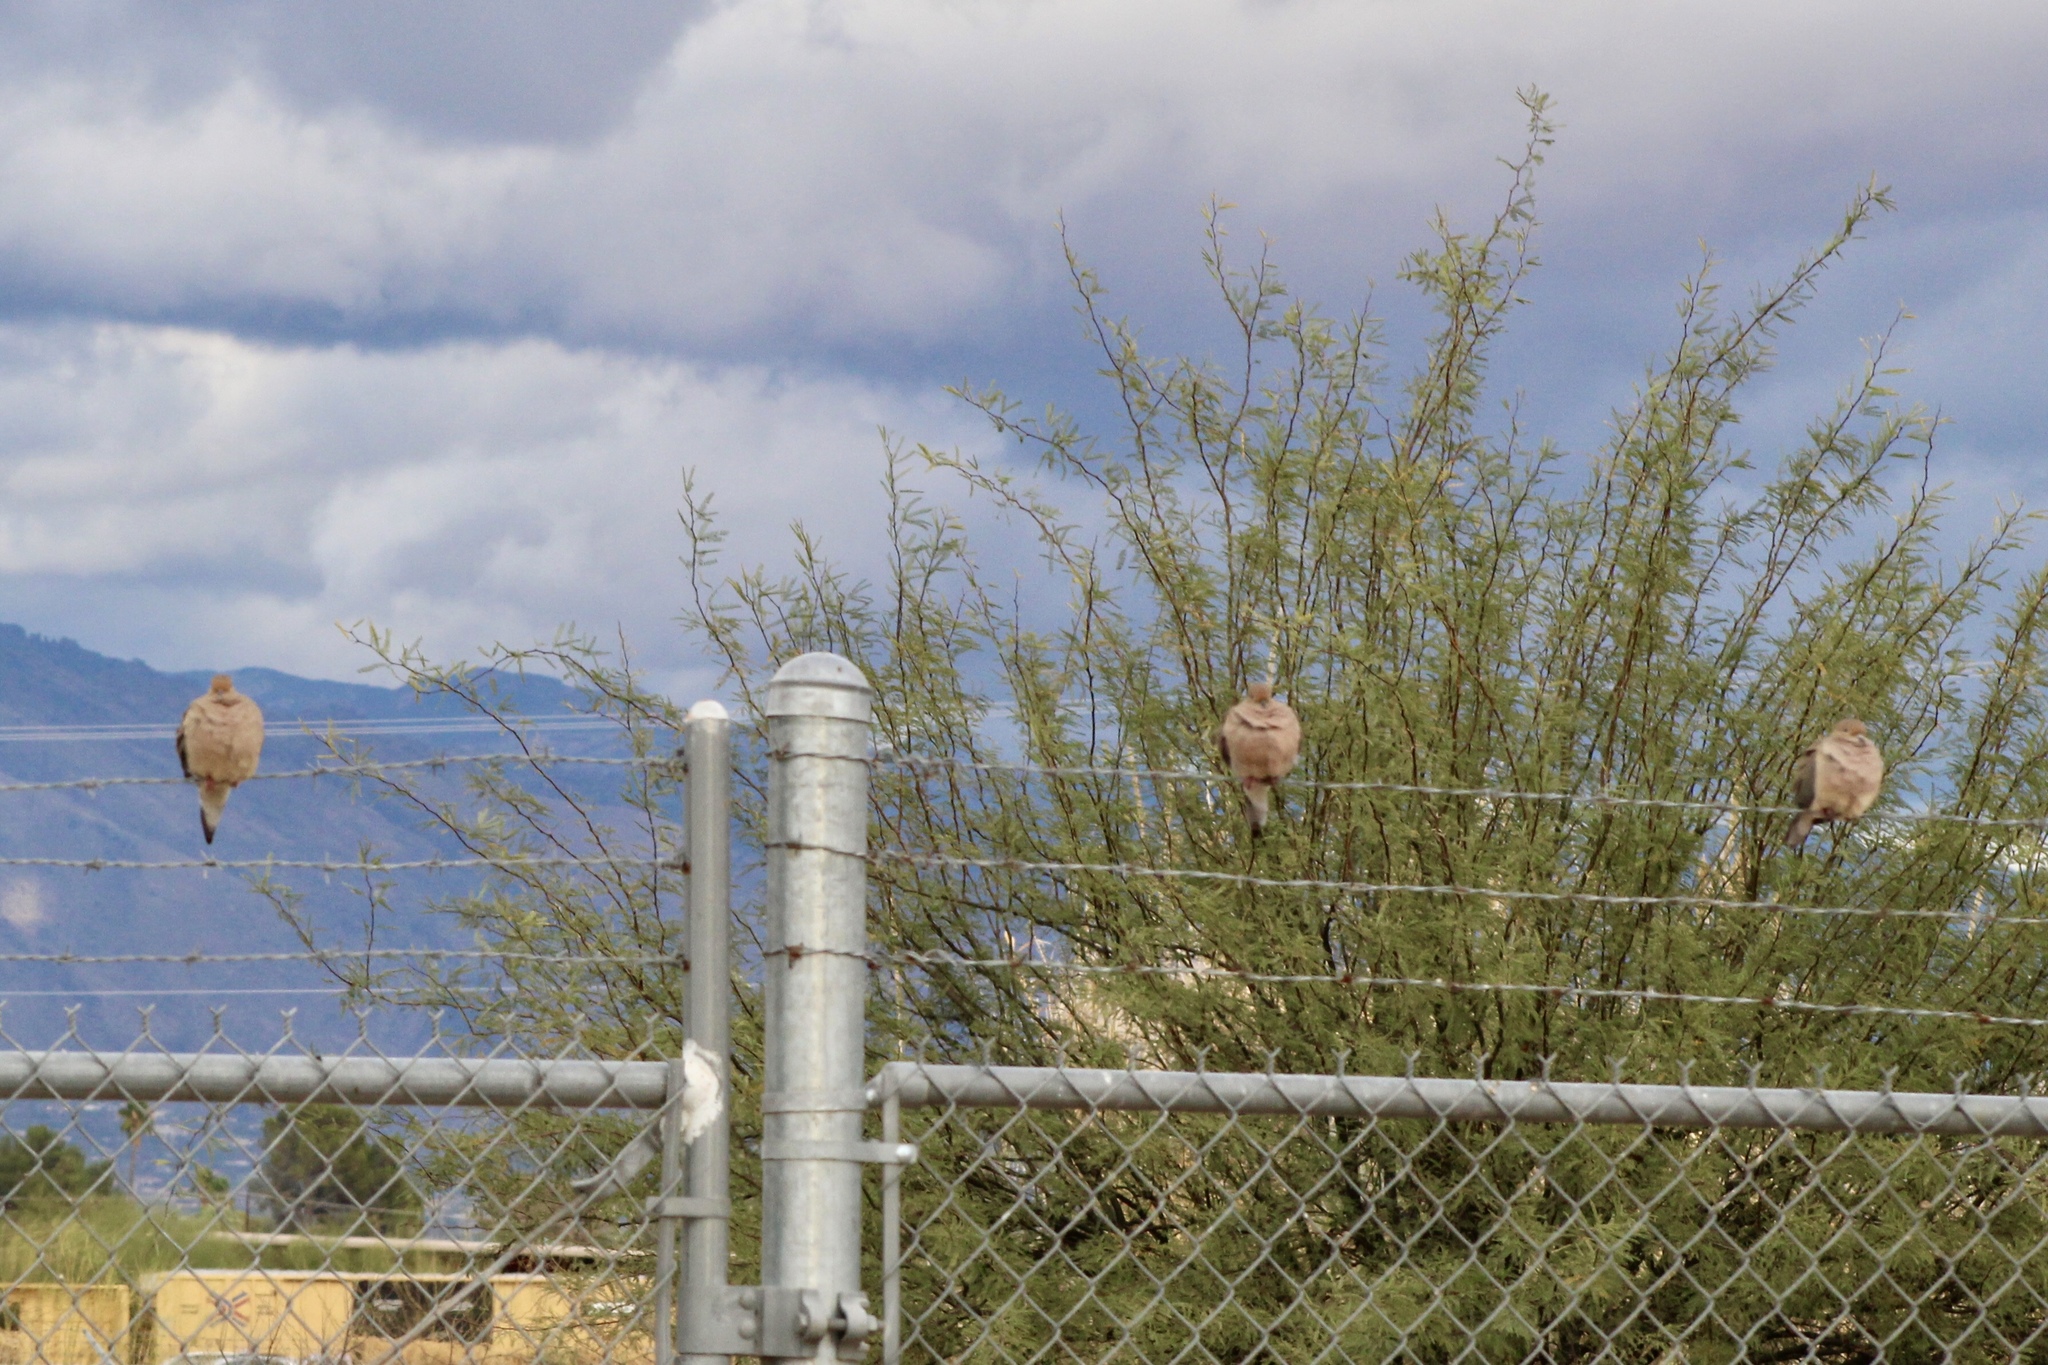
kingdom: Animalia
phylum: Chordata
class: Aves
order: Columbiformes
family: Columbidae
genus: Zenaida
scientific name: Zenaida macroura
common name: Mourning dove
